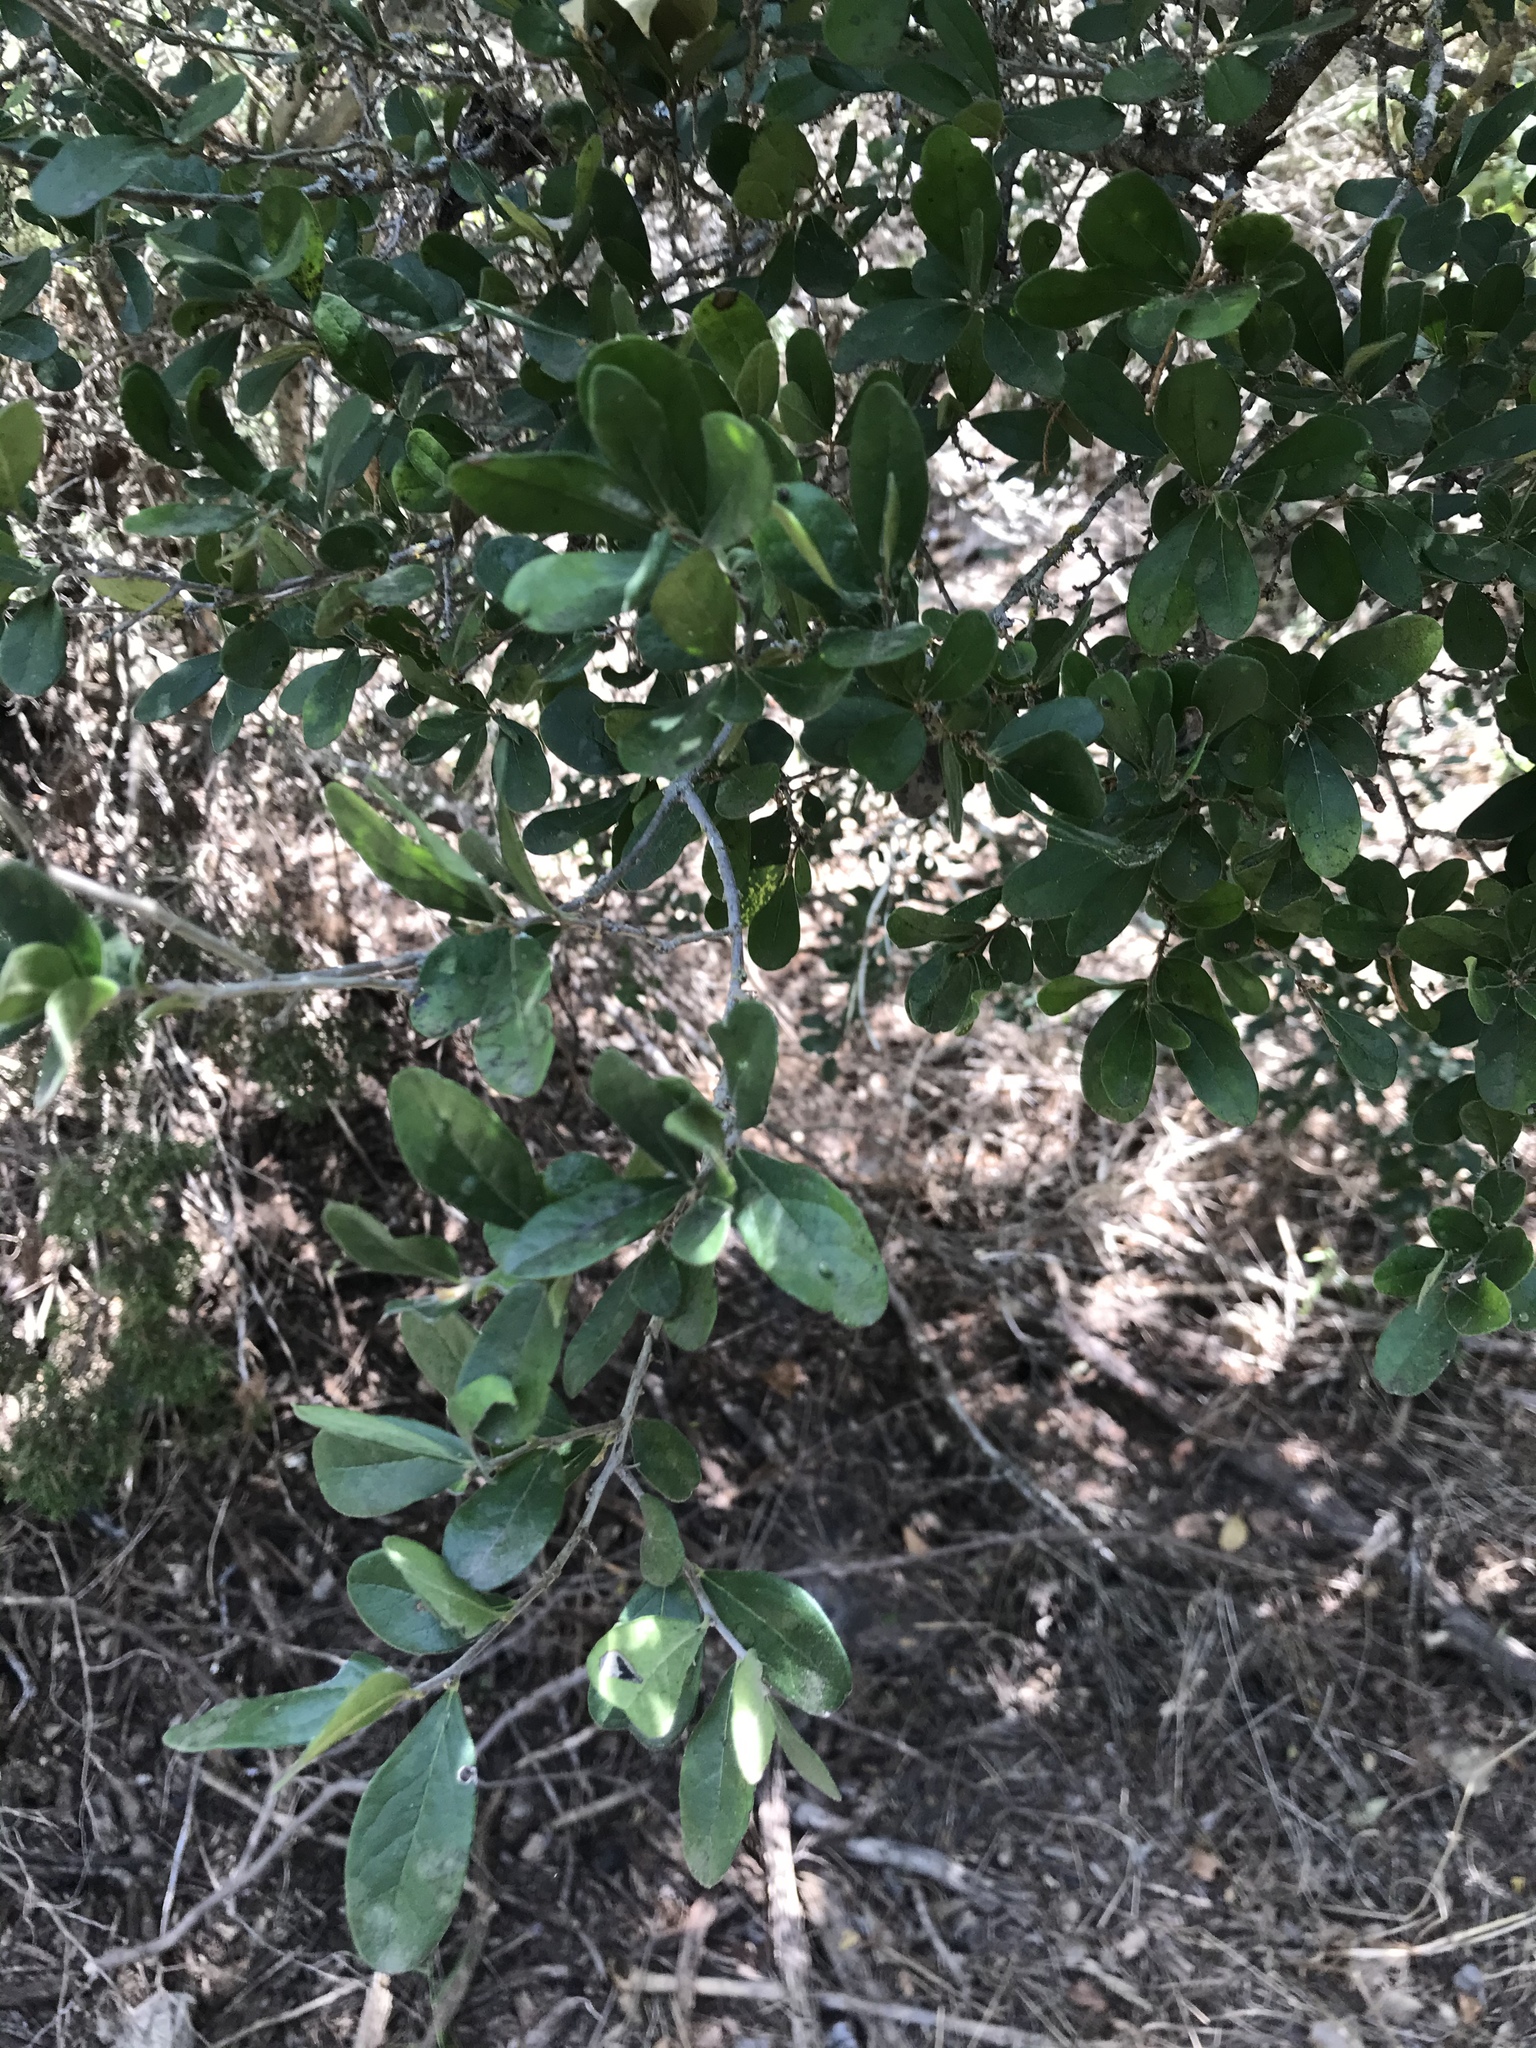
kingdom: Plantae
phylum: Tracheophyta
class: Magnoliopsida
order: Ericales
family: Ebenaceae
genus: Diospyros
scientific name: Diospyros texana
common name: Texas persimmon
